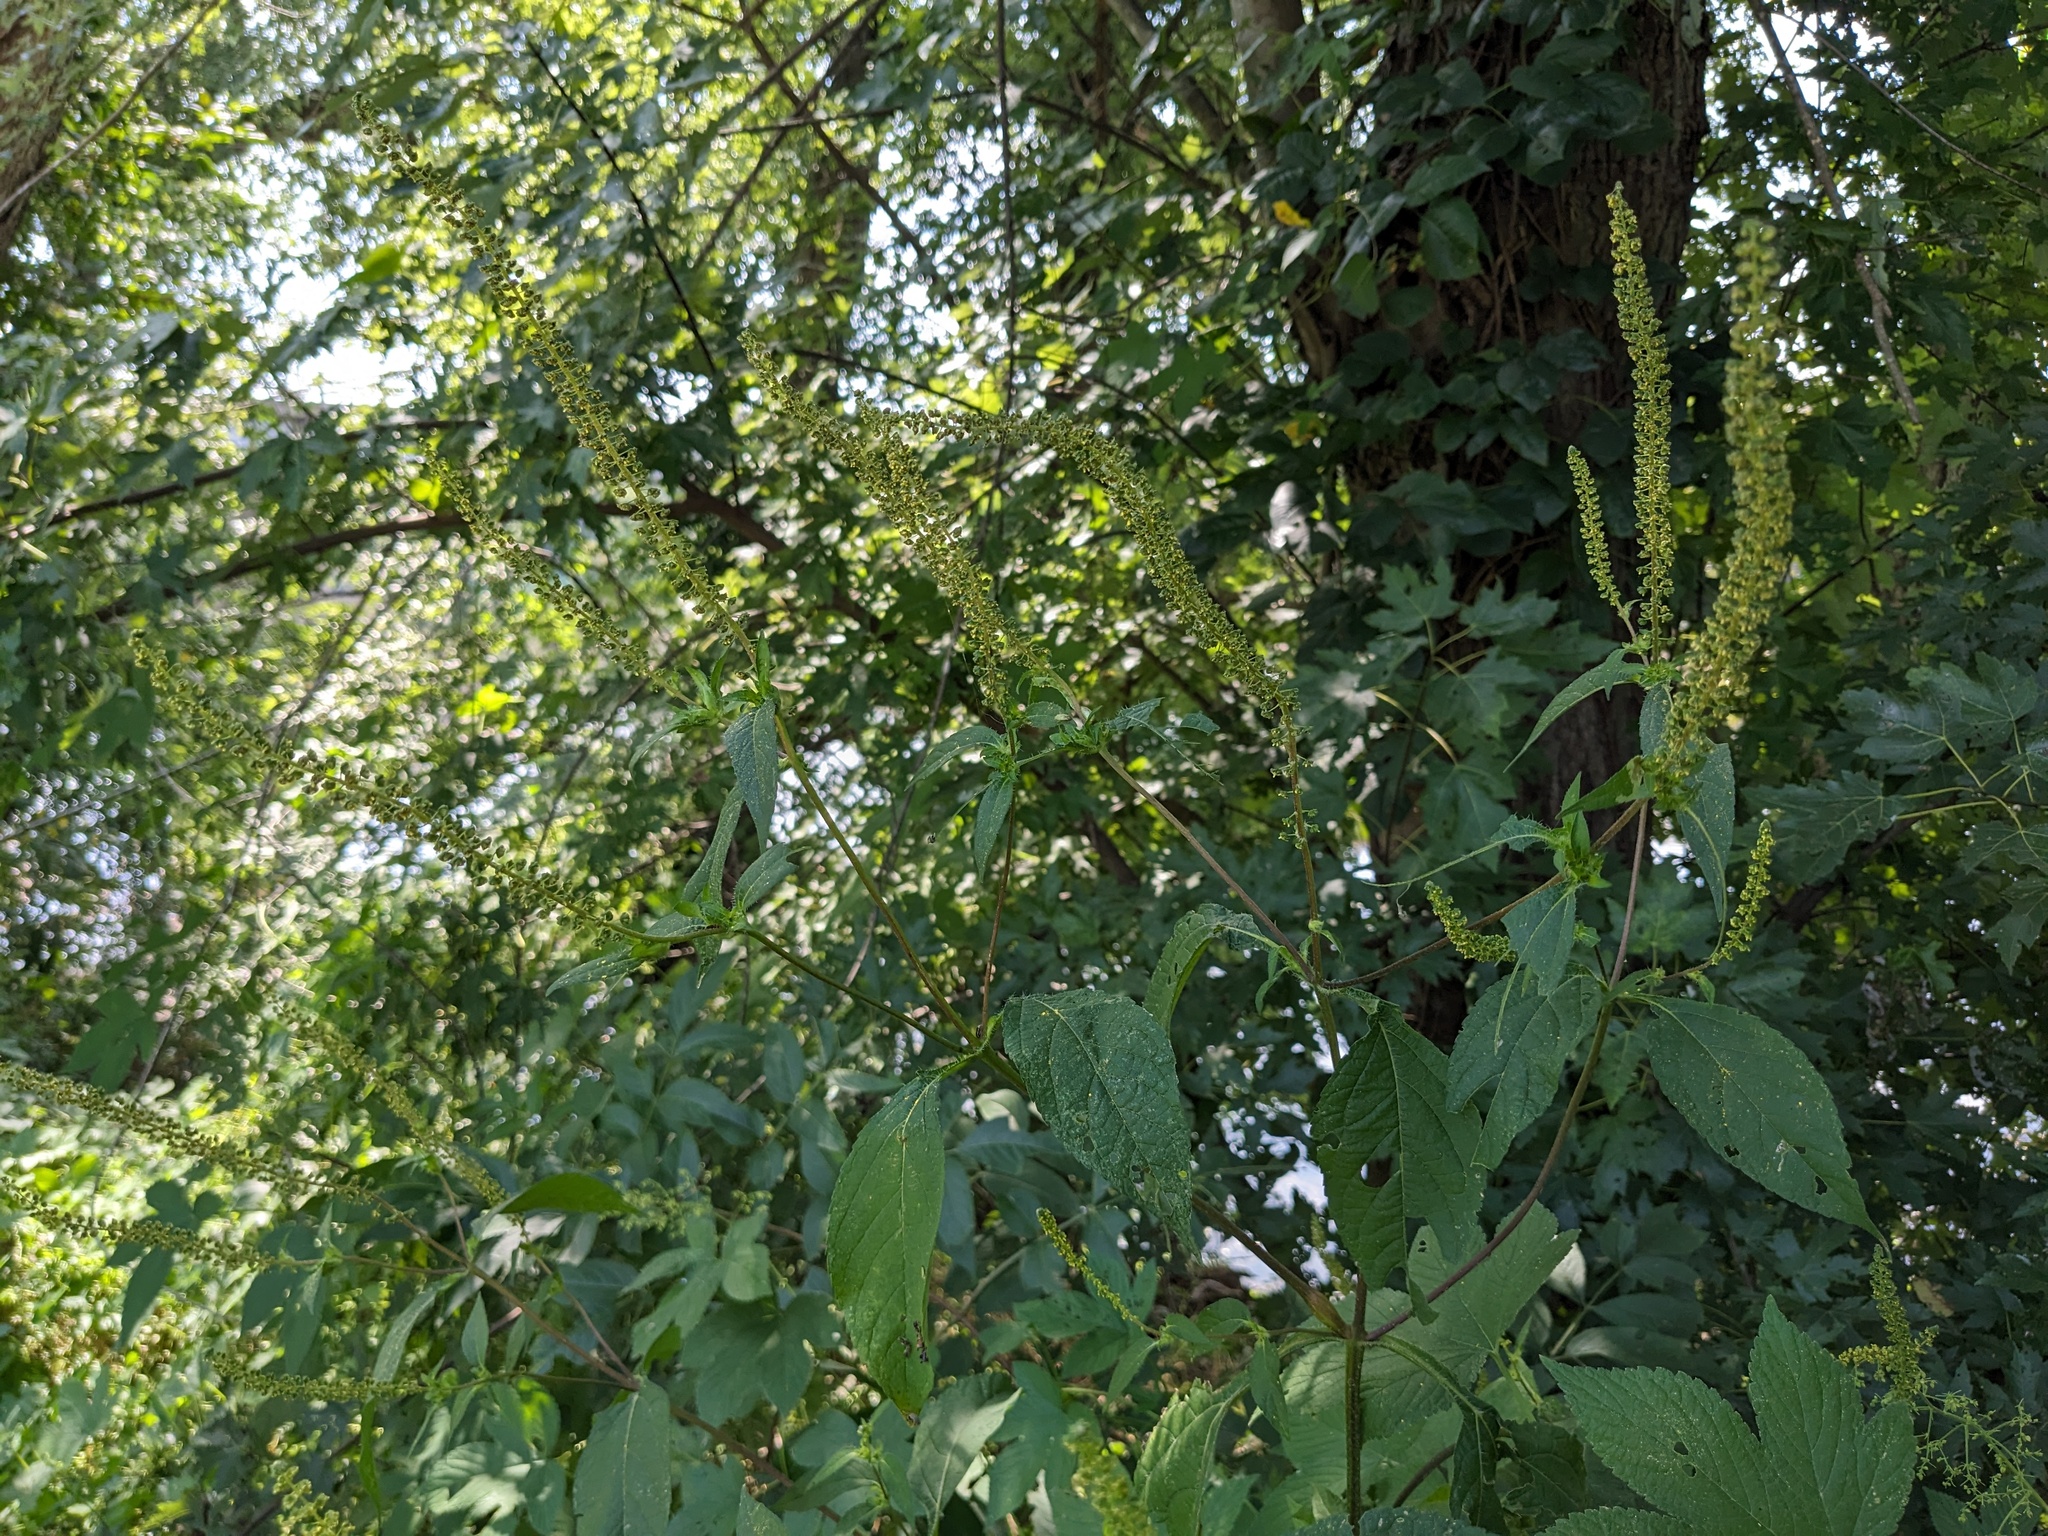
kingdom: Plantae
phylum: Tracheophyta
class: Magnoliopsida
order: Asterales
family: Asteraceae
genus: Ambrosia
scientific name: Ambrosia trifida
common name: Giant ragweed
